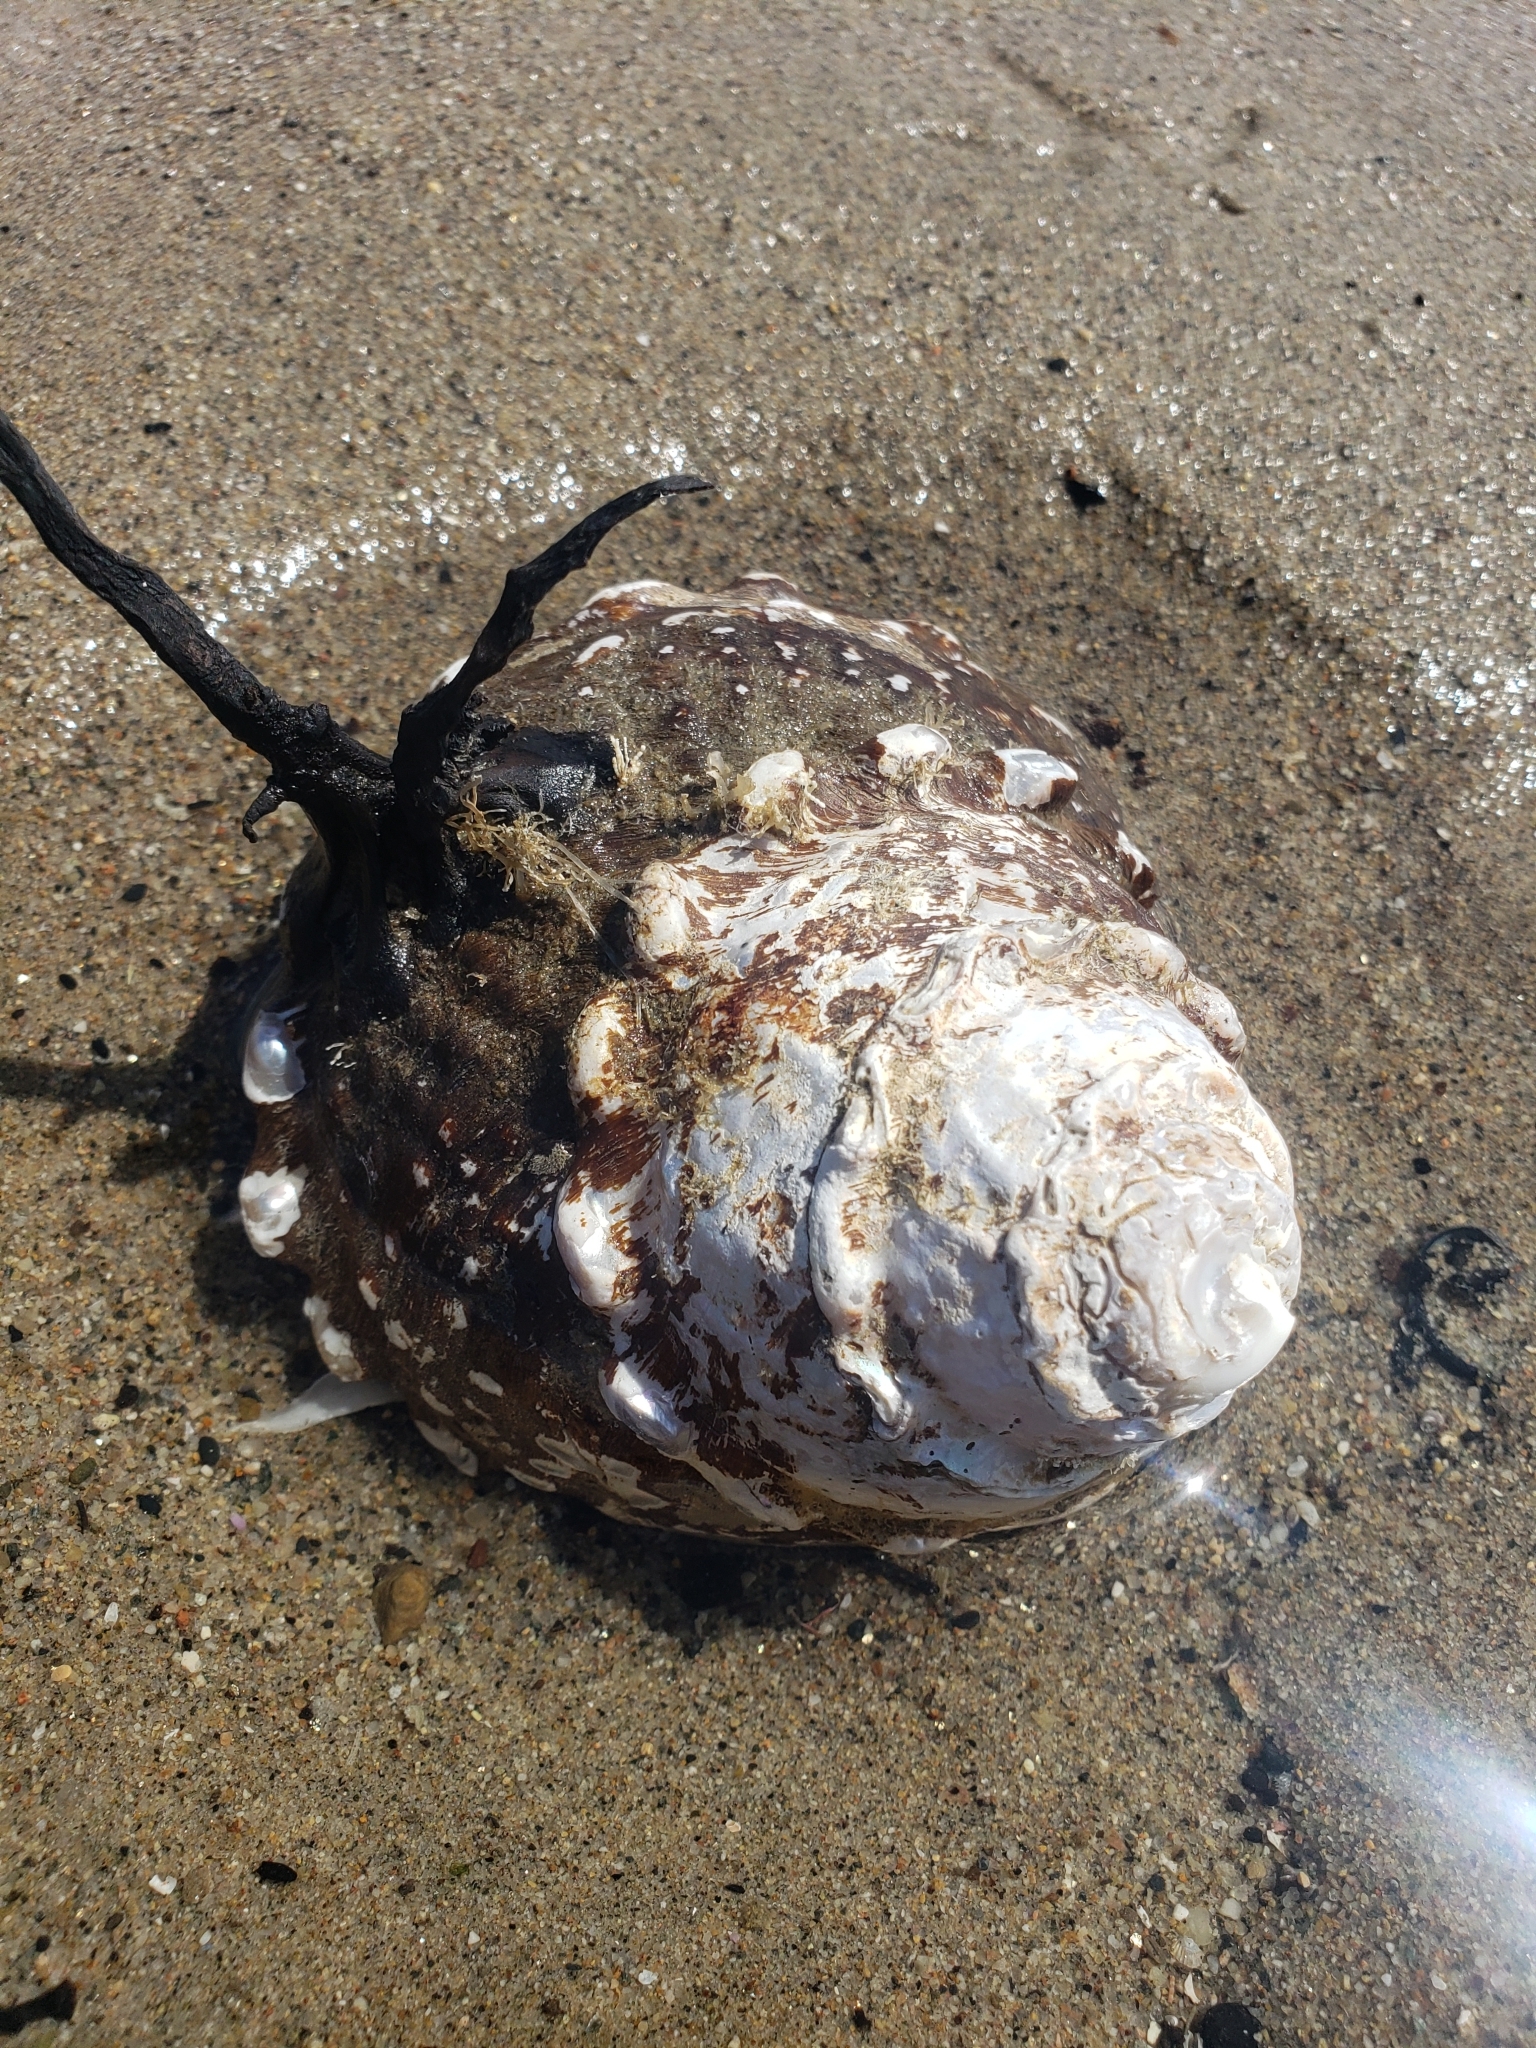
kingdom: Animalia
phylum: Mollusca
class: Gastropoda
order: Trochida
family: Turbinidae
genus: Megastraea
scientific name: Megastraea undosa
